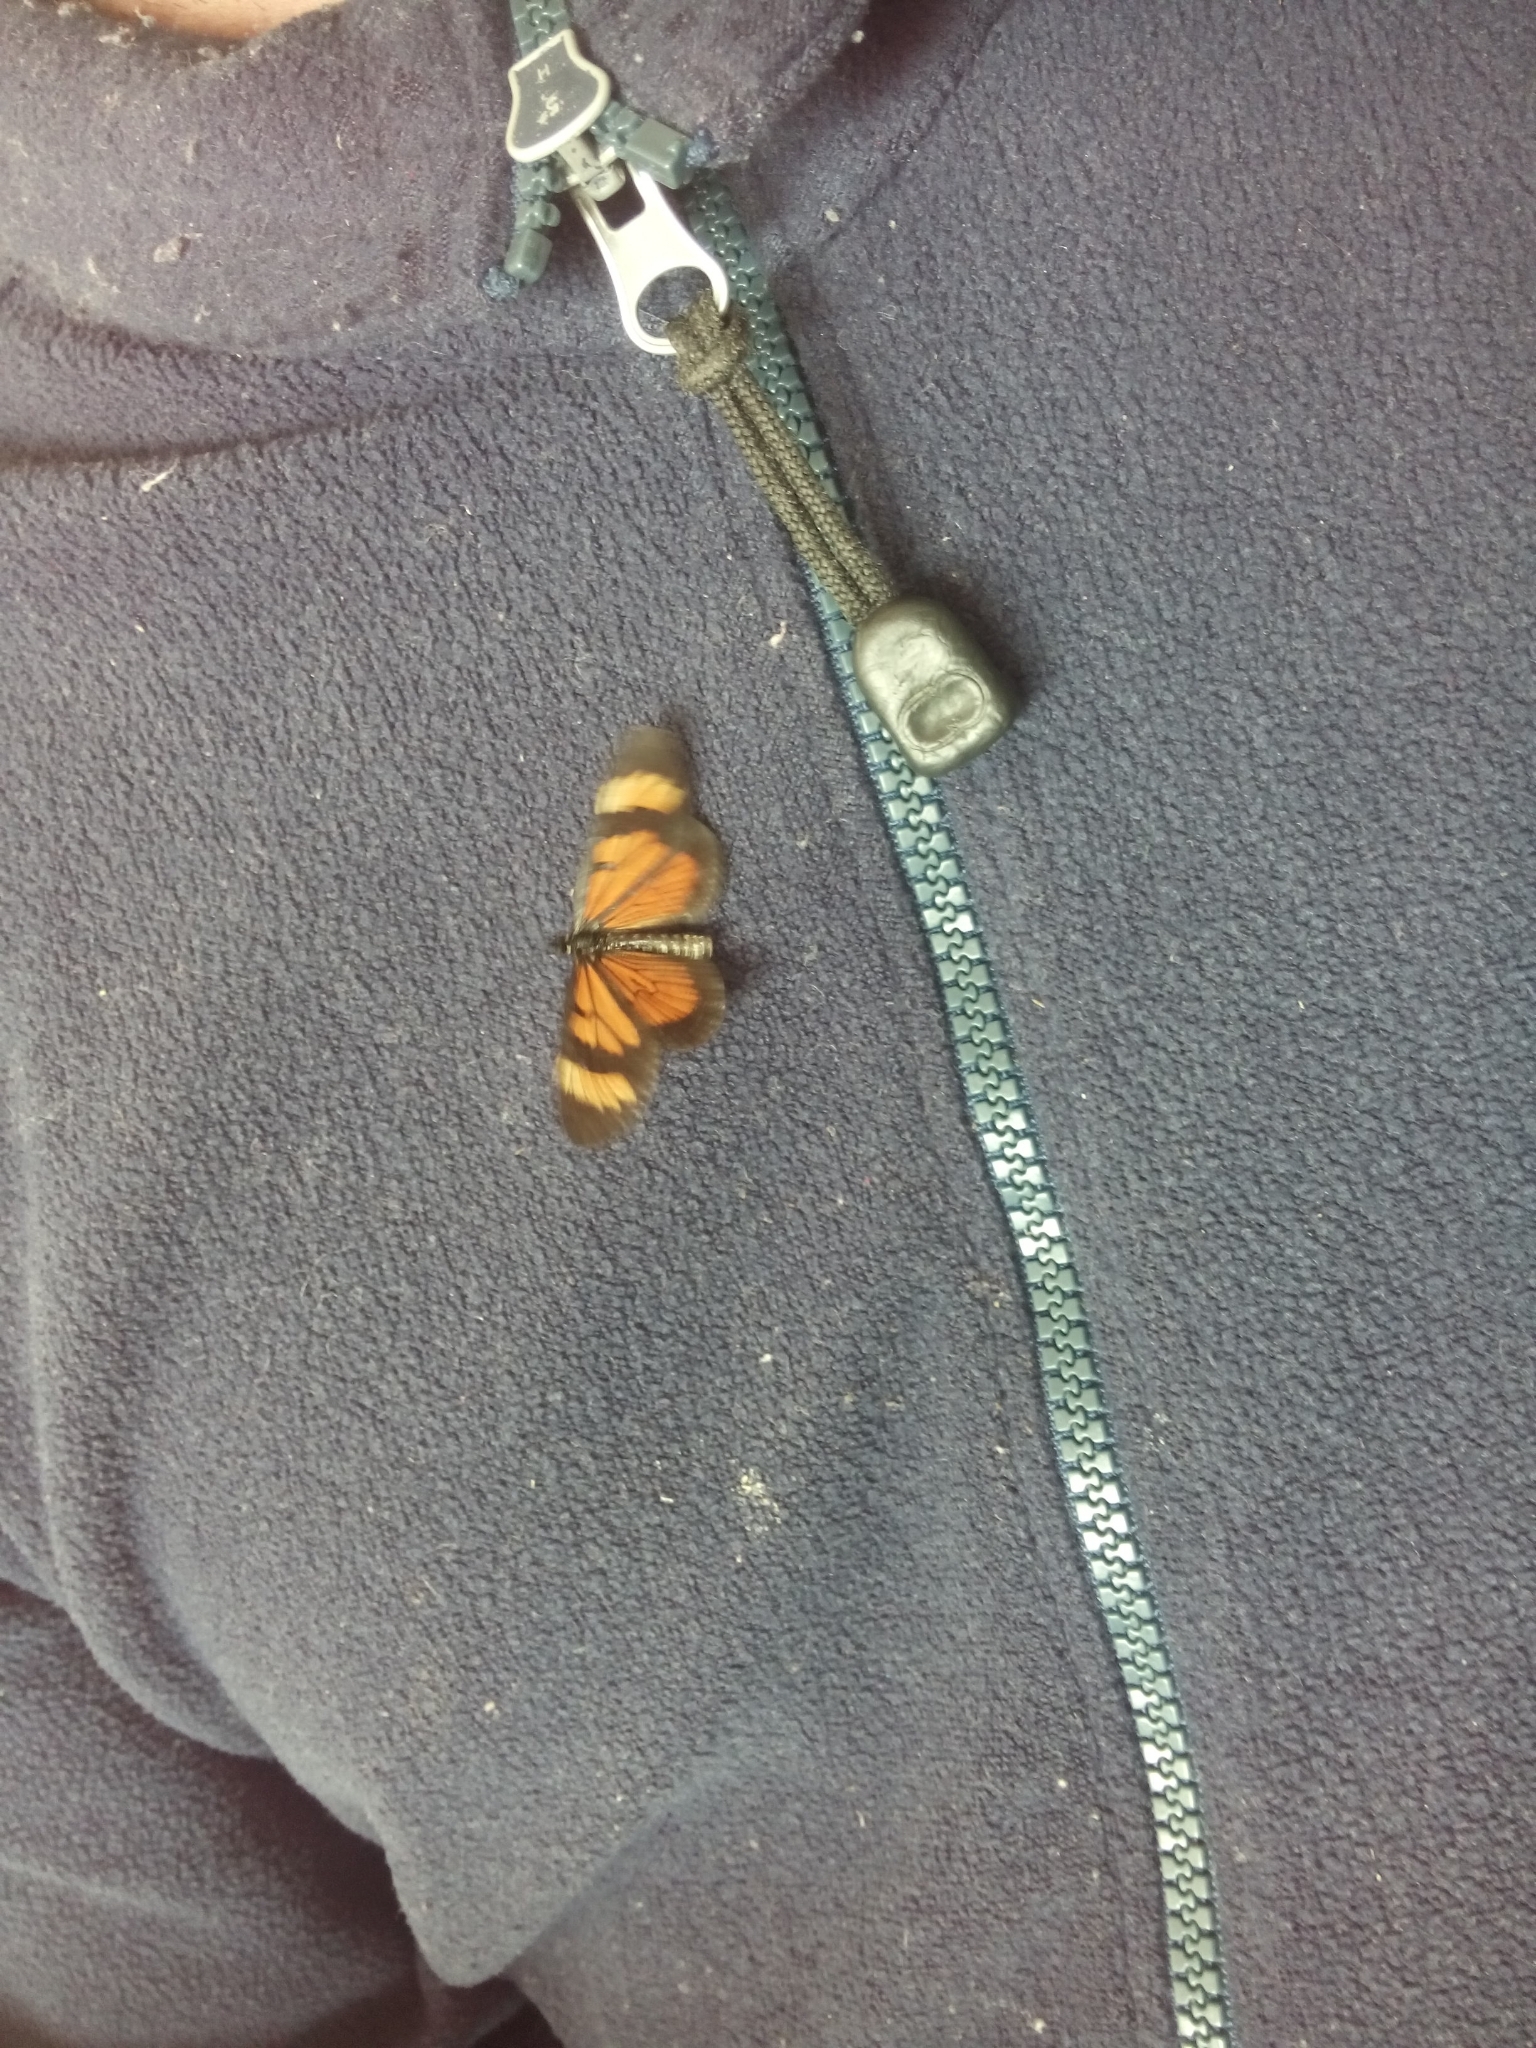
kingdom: Animalia
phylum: Arthropoda
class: Insecta
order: Lepidoptera
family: Nymphalidae
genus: Actinote
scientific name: Actinote pellenea
